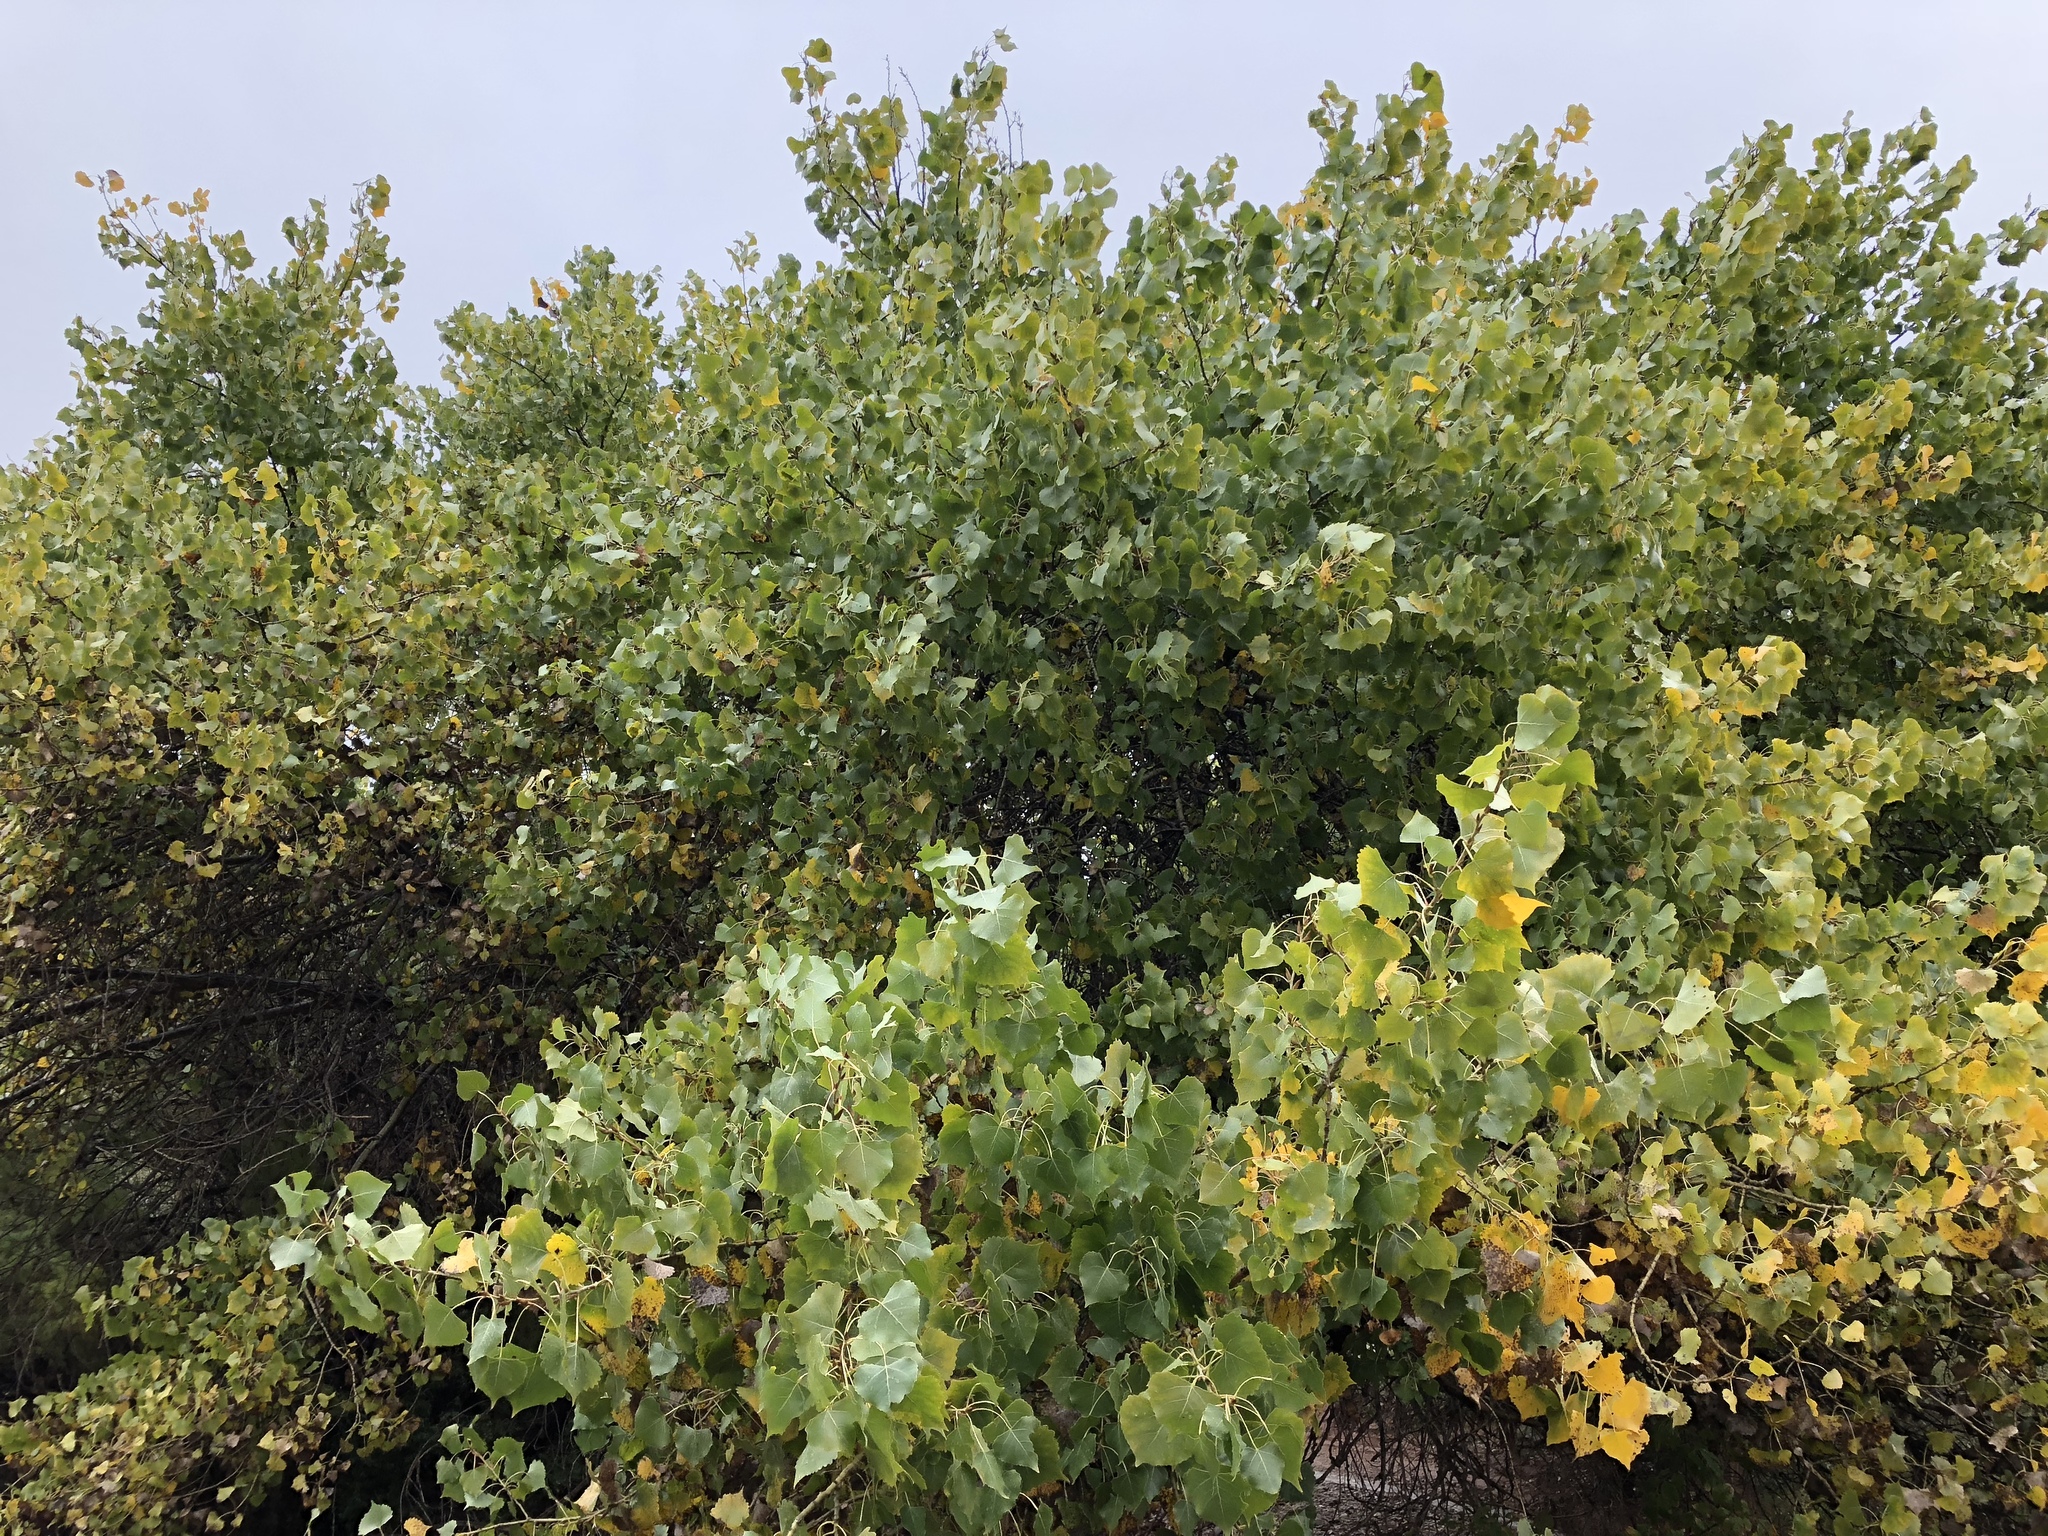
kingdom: Plantae
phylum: Tracheophyta
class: Magnoliopsida
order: Malpighiales
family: Salicaceae
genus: Populus
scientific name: Populus fremontii
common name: Fremont's cottonwood
